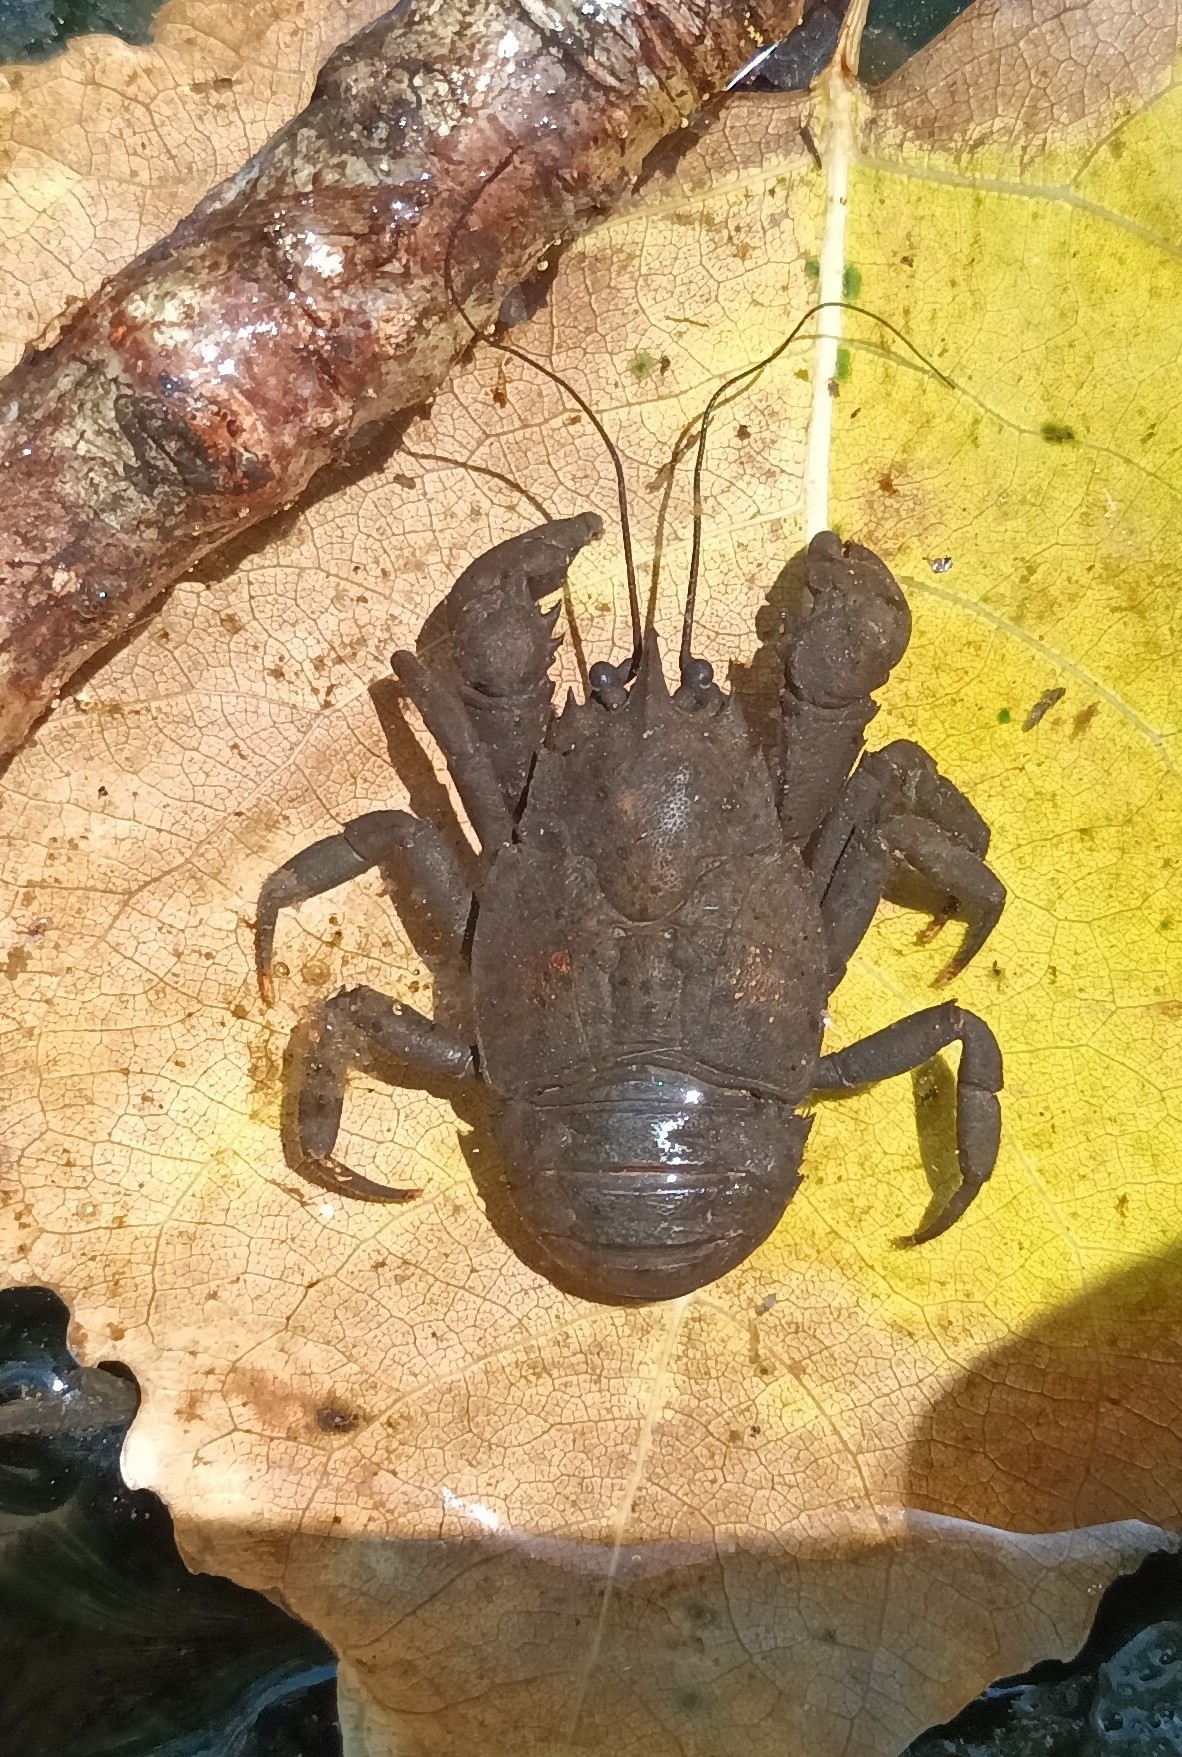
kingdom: Animalia
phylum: Arthropoda
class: Malacostraca
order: Decapoda
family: Aeglidae
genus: Aegla
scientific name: Aegla
